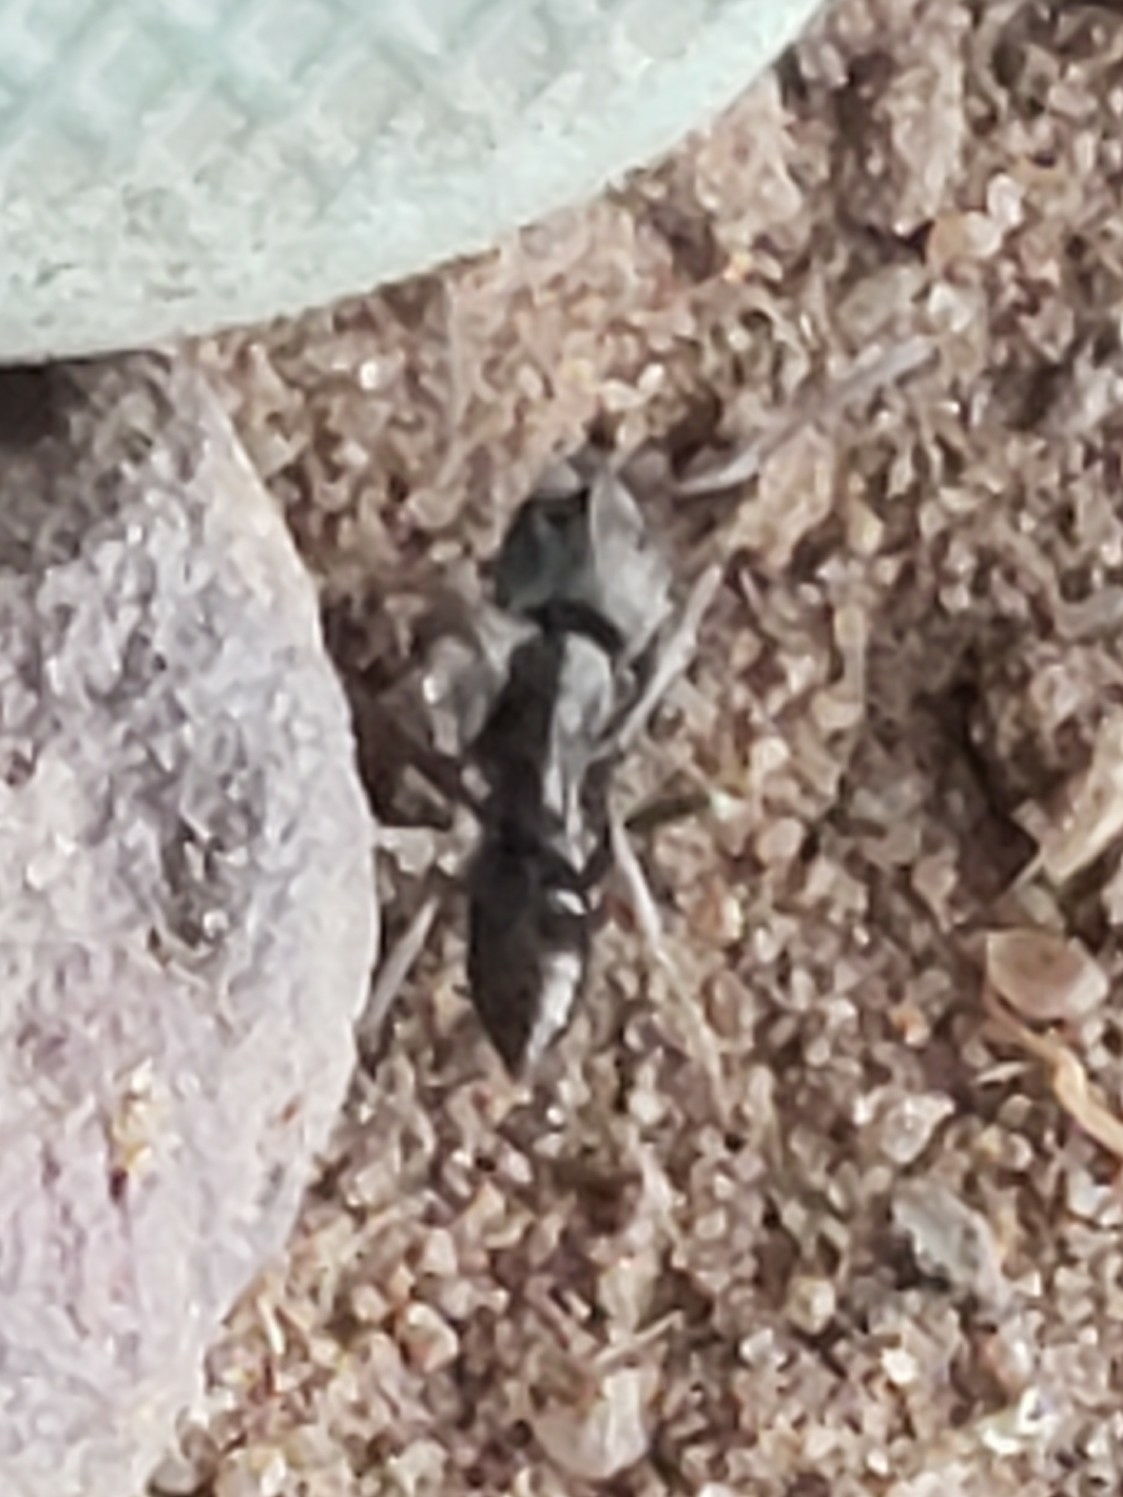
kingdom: Animalia
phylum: Arthropoda
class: Insecta
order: Hymenoptera
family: Formicidae
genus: Pachycondyla
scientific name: Pachycondyla sennaarensis
